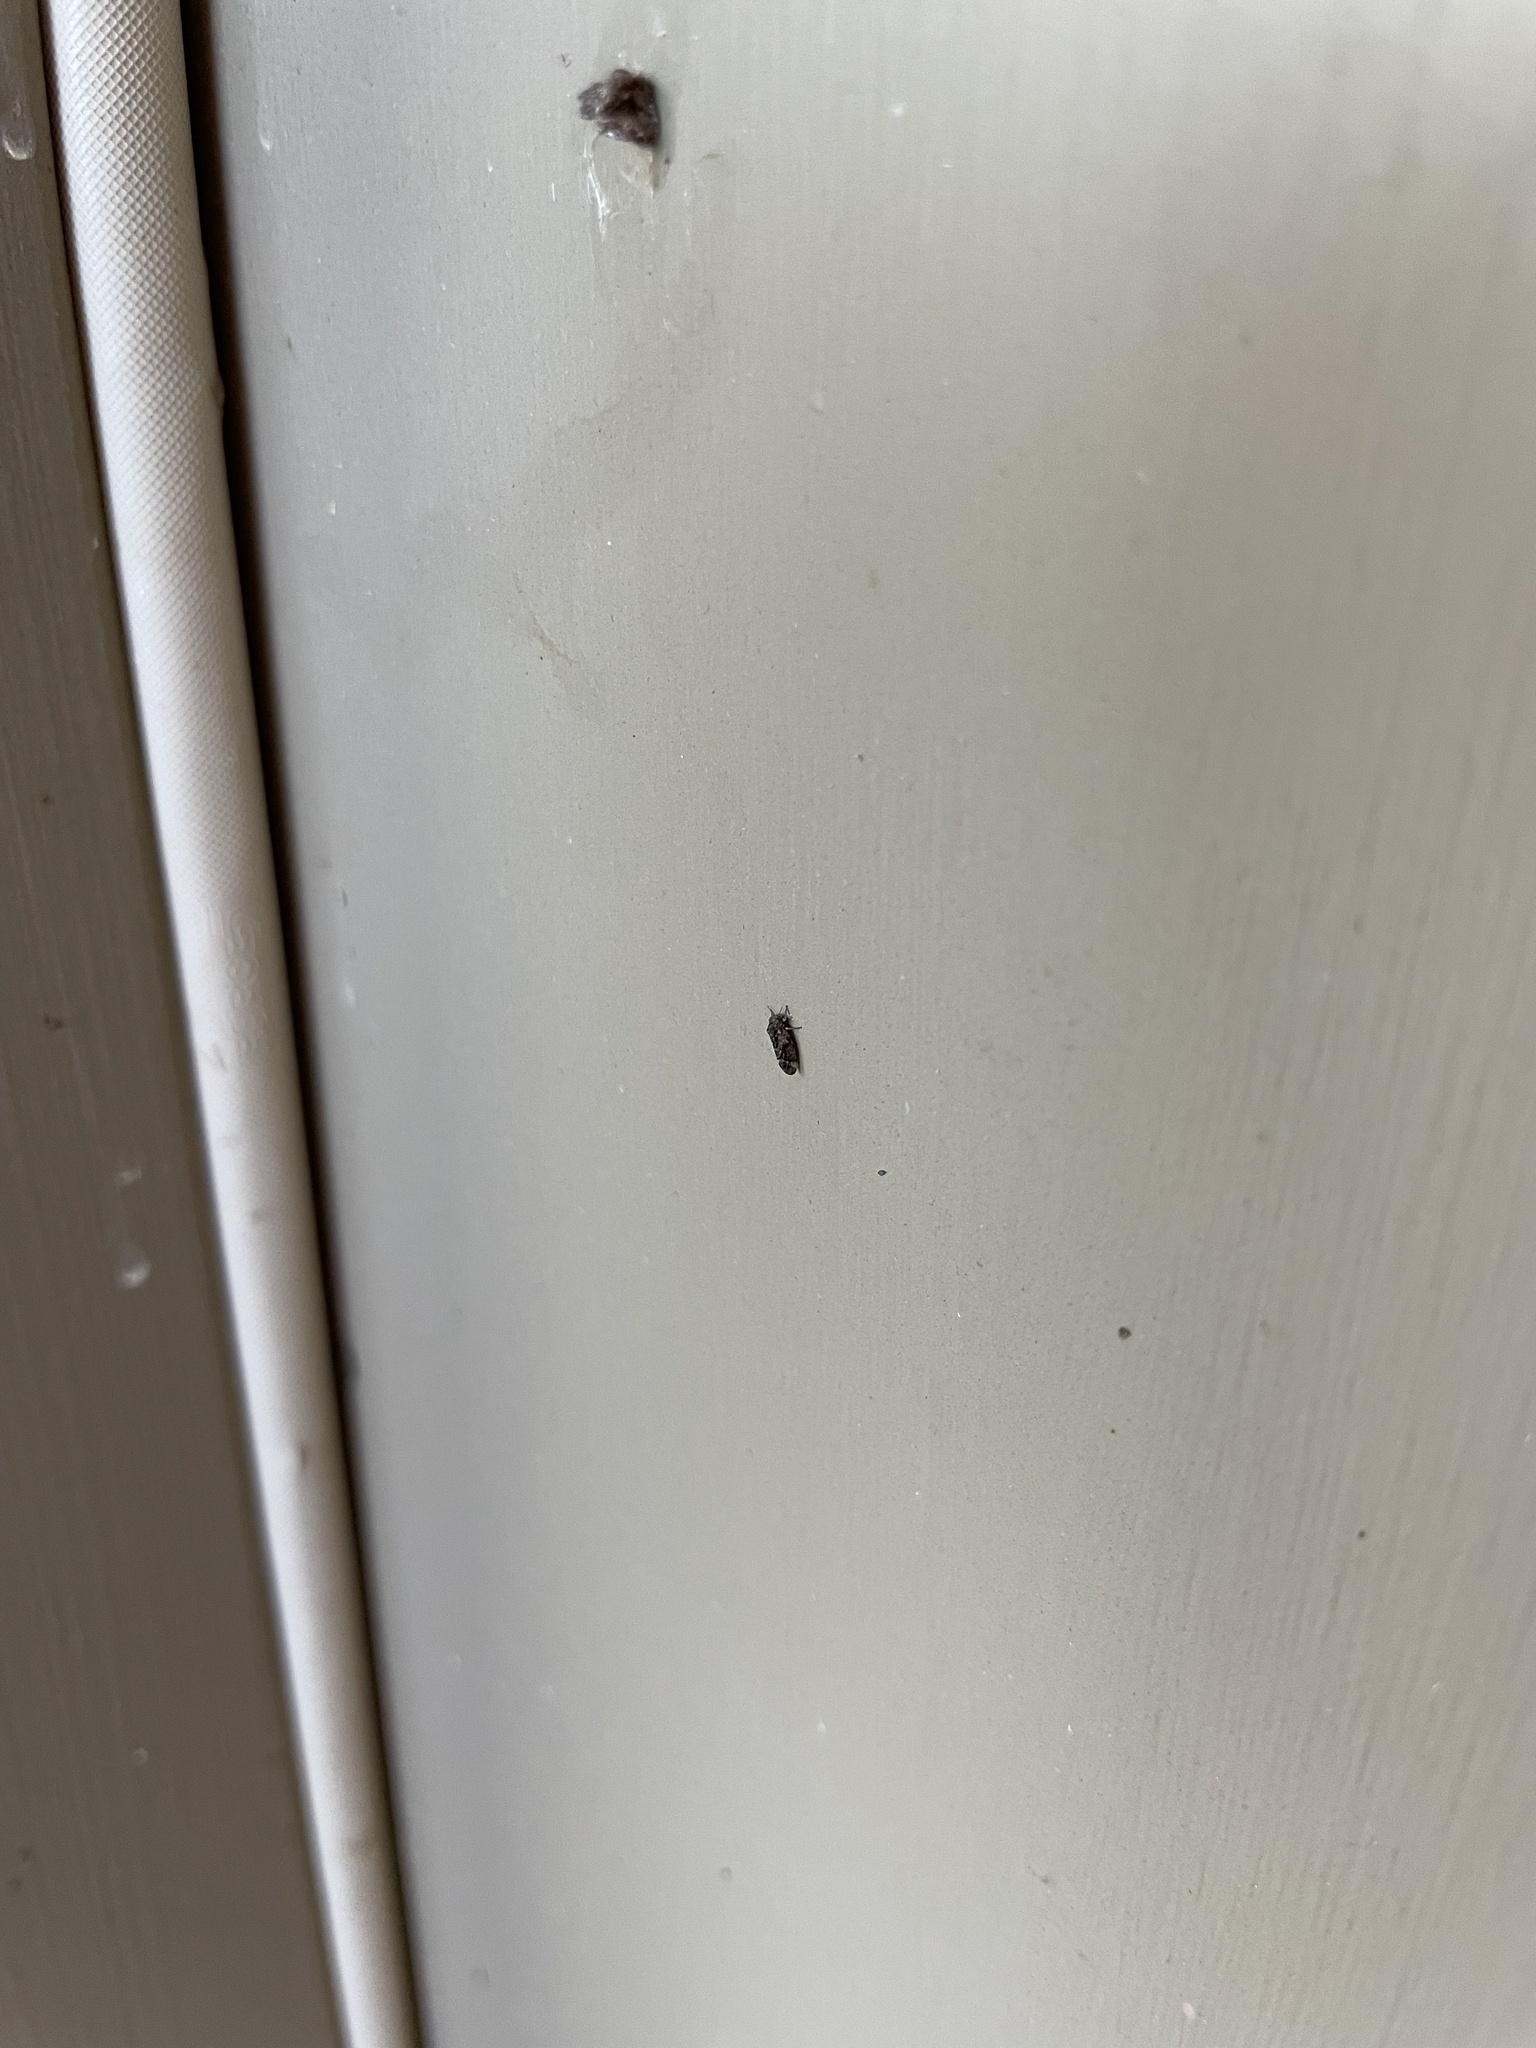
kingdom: Animalia
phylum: Arthropoda
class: Insecta
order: Hemiptera
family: Aphalaridae
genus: Pachypsylla
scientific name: Pachypsylla
